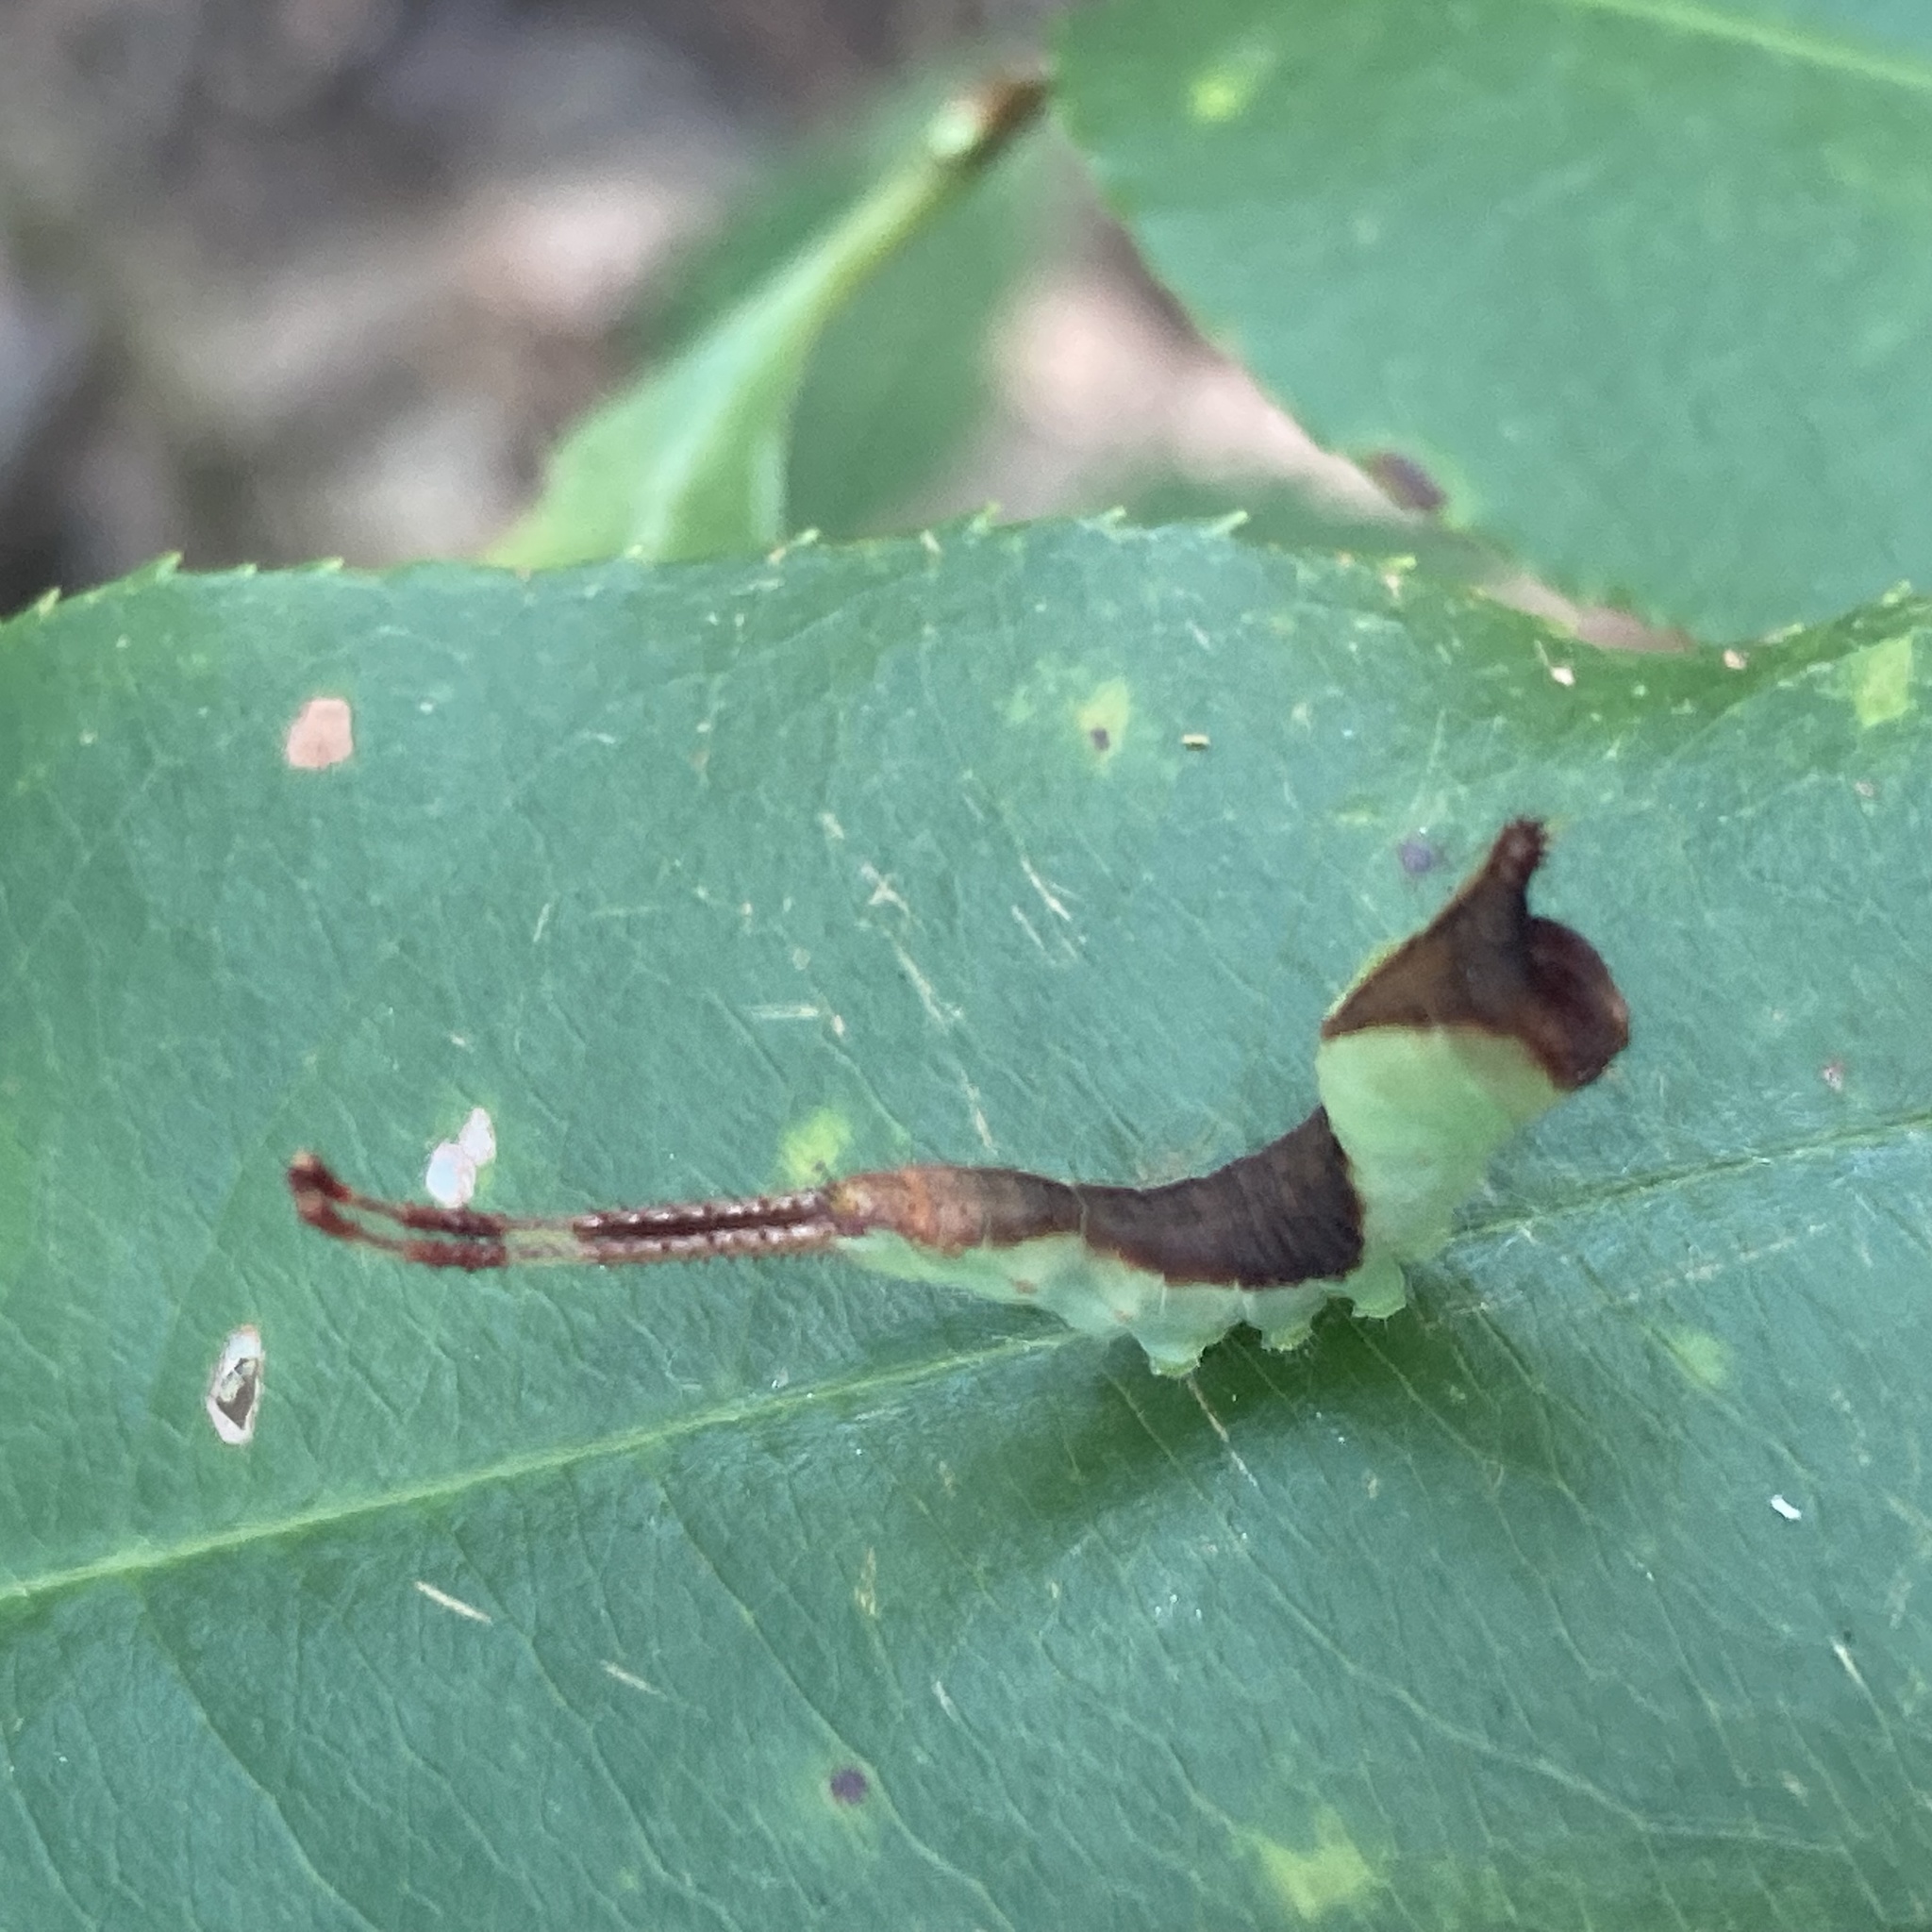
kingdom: Animalia
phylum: Arthropoda
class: Insecta
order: Lepidoptera
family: Notodontidae
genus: Furcula
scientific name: Furcula borealis
